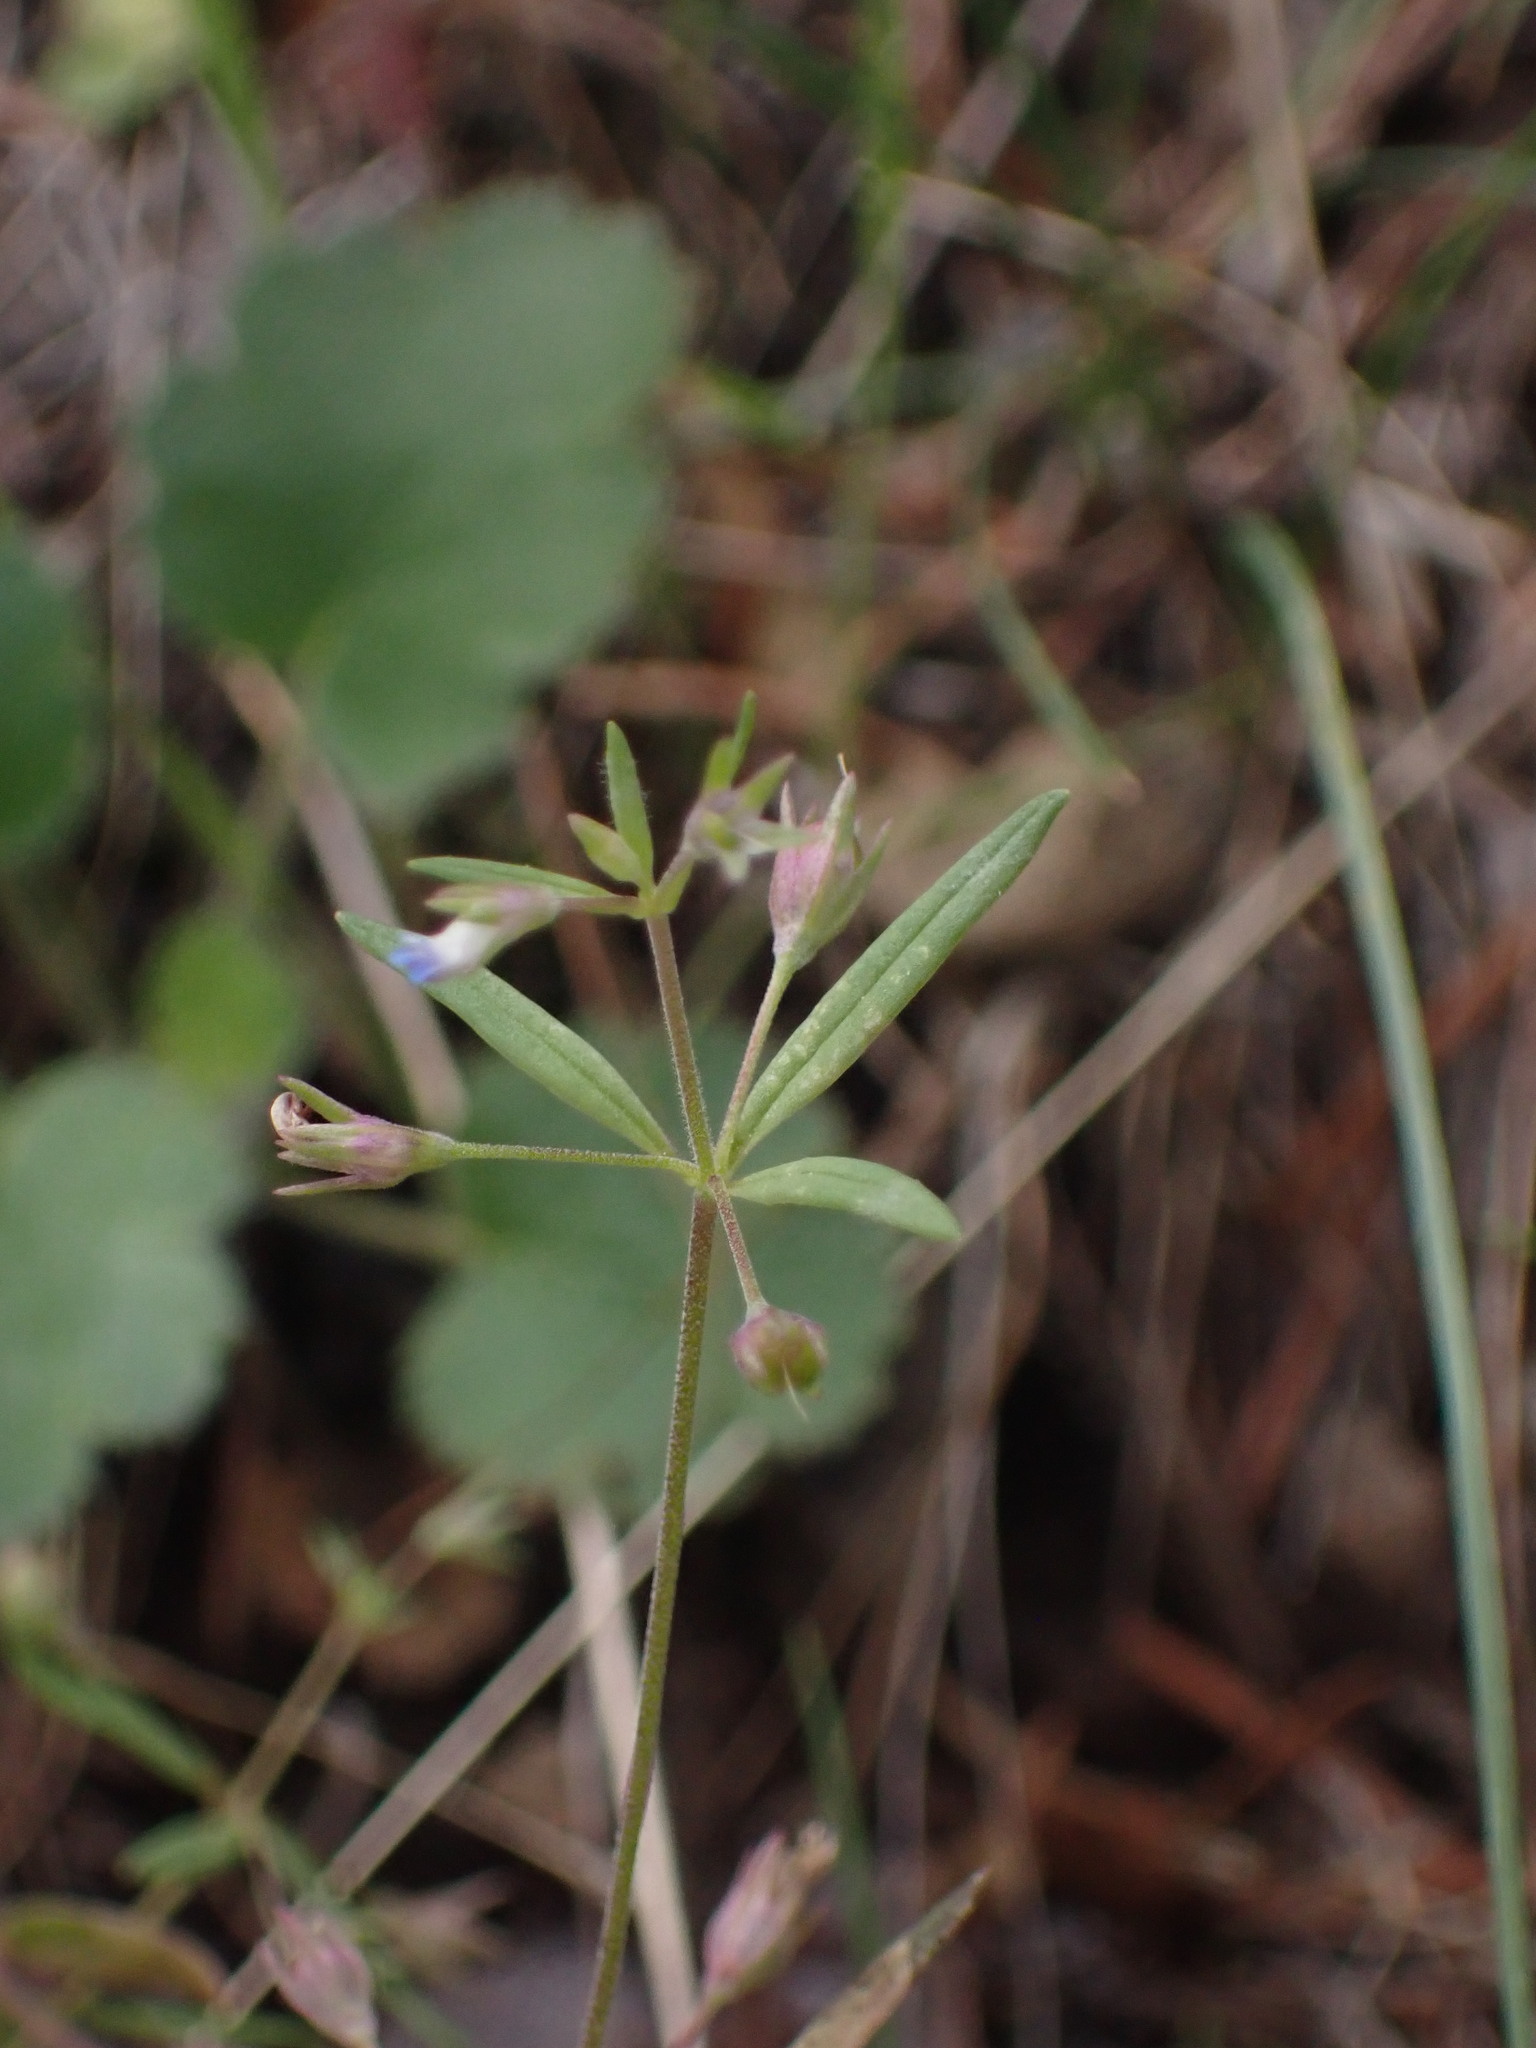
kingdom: Plantae
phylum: Tracheophyta
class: Magnoliopsida
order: Lamiales
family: Plantaginaceae
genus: Collinsia
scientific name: Collinsia parviflora
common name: Blue-lips
